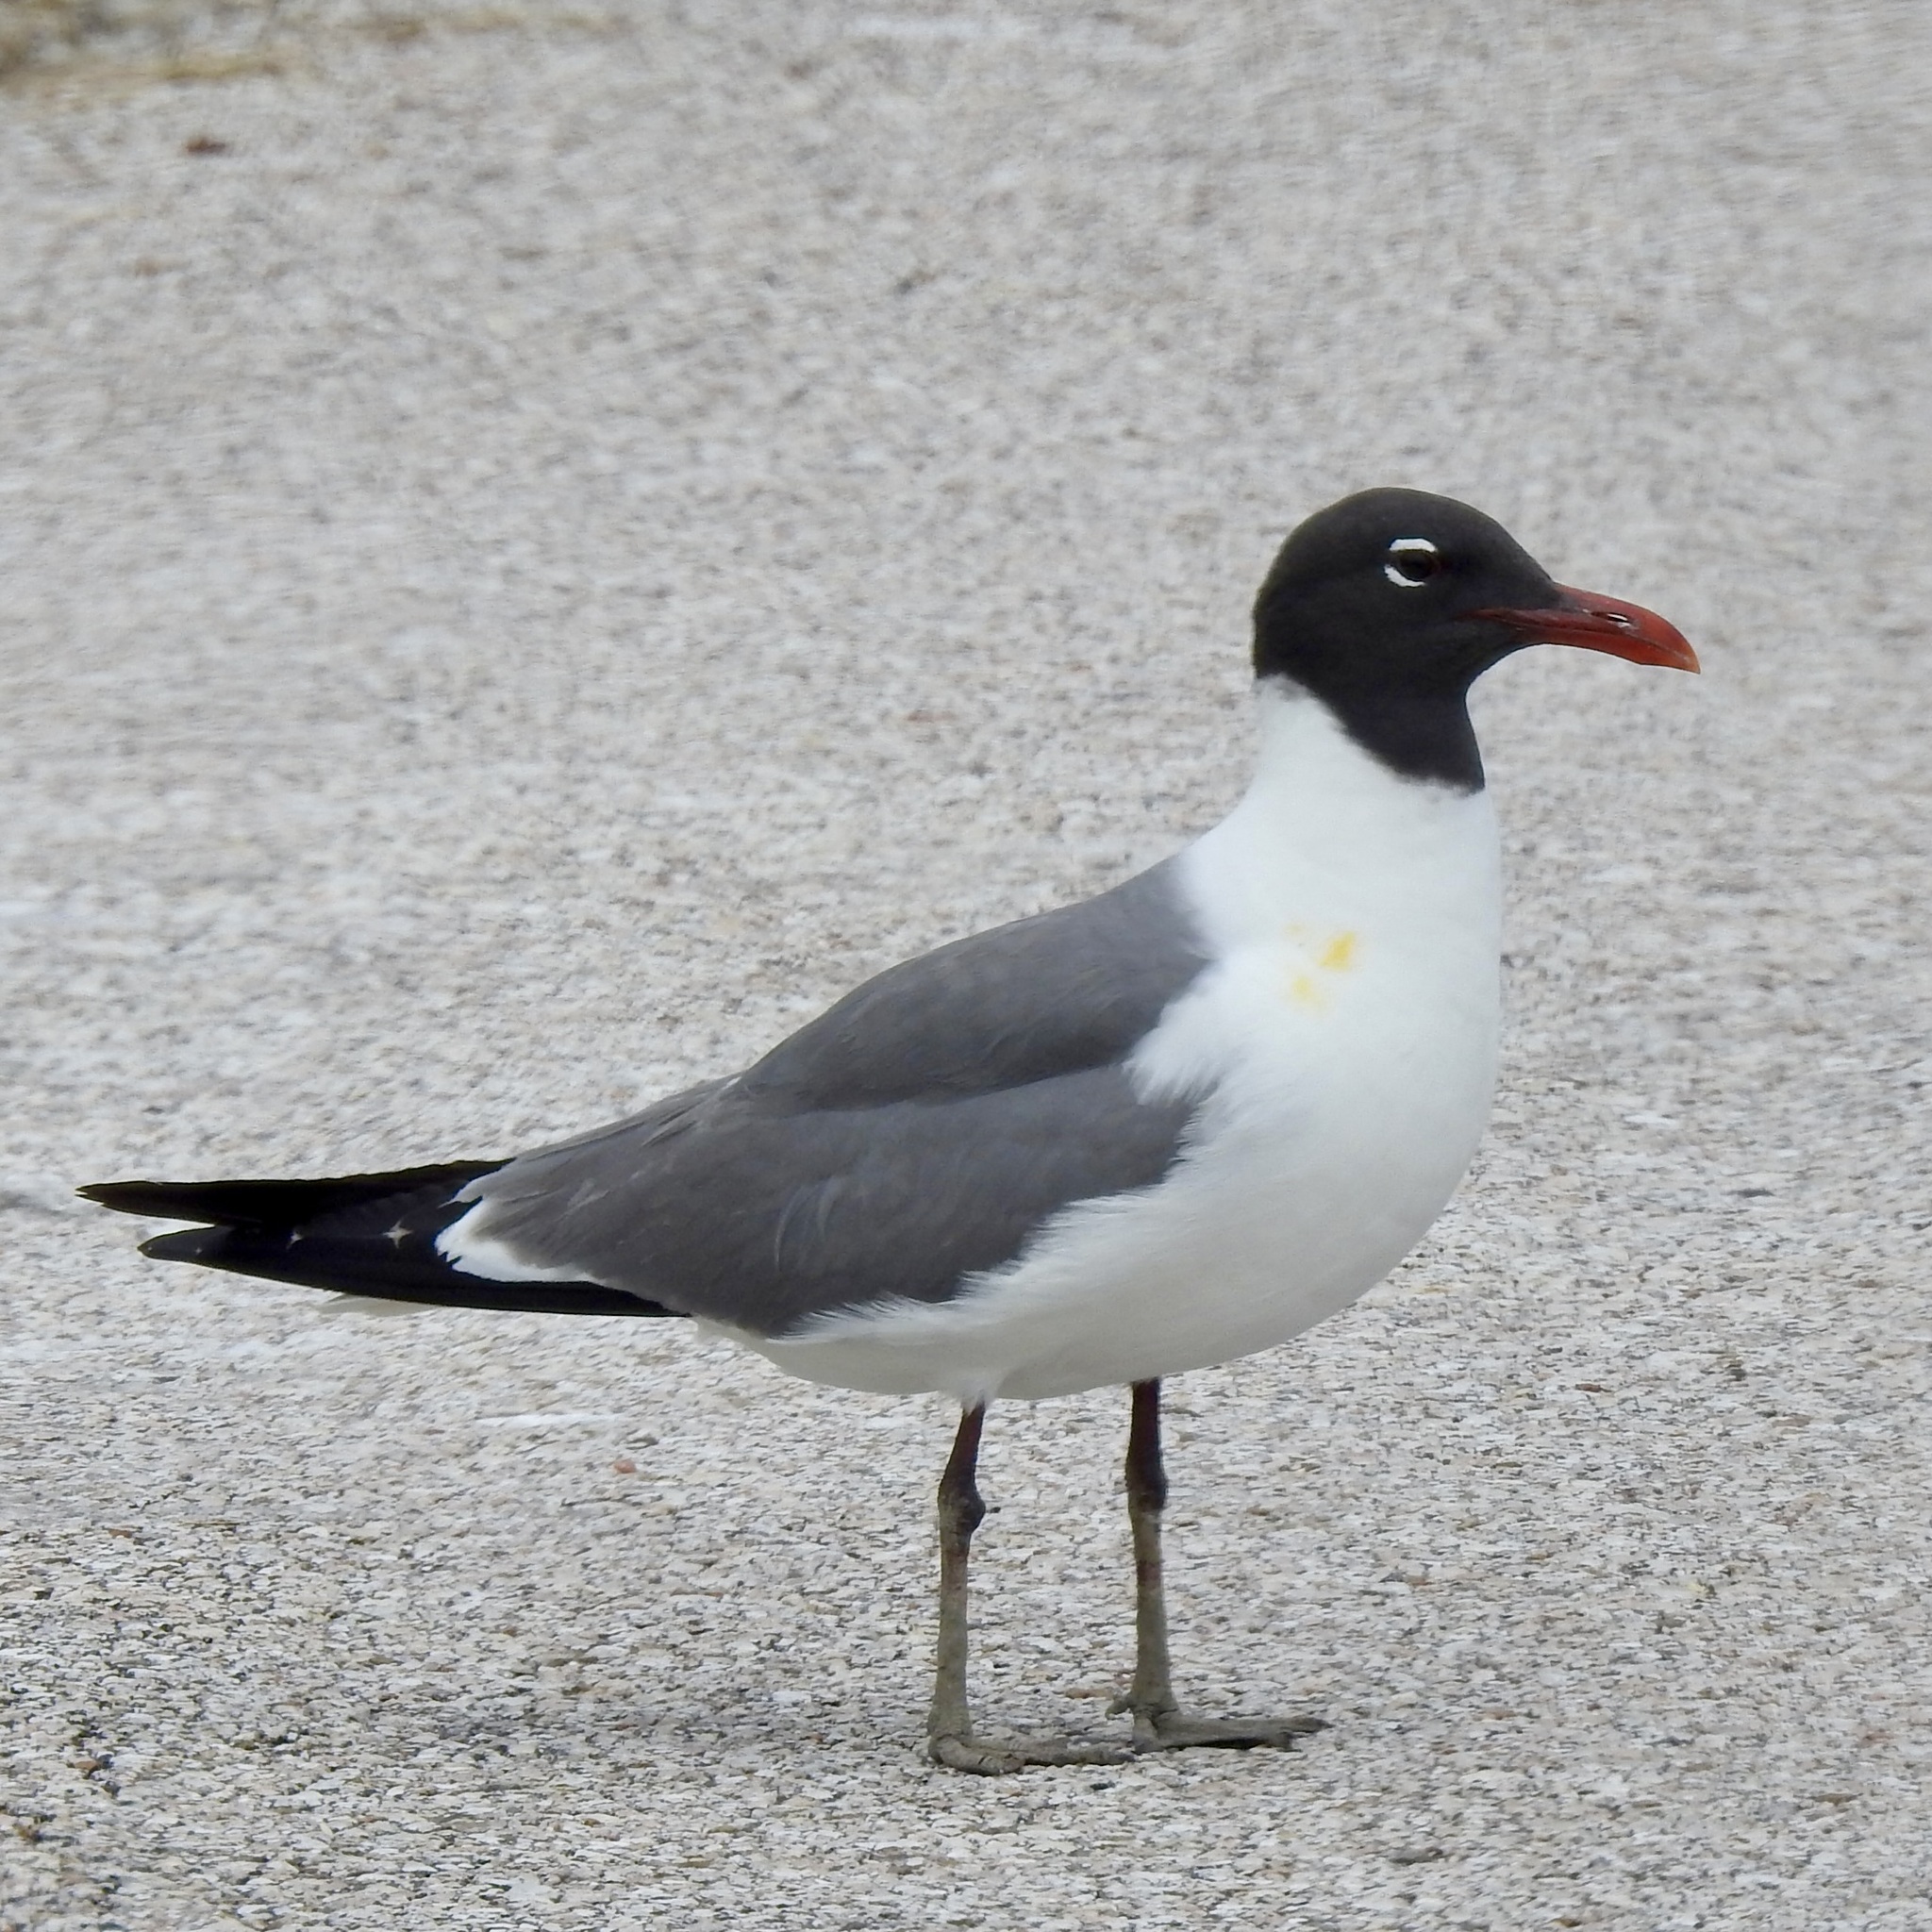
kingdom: Animalia
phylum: Chordata
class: Aves
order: Charadriiformes
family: Laridae
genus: Leucophaeus
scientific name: Leucophaeus atricilla
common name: Laughing gull
